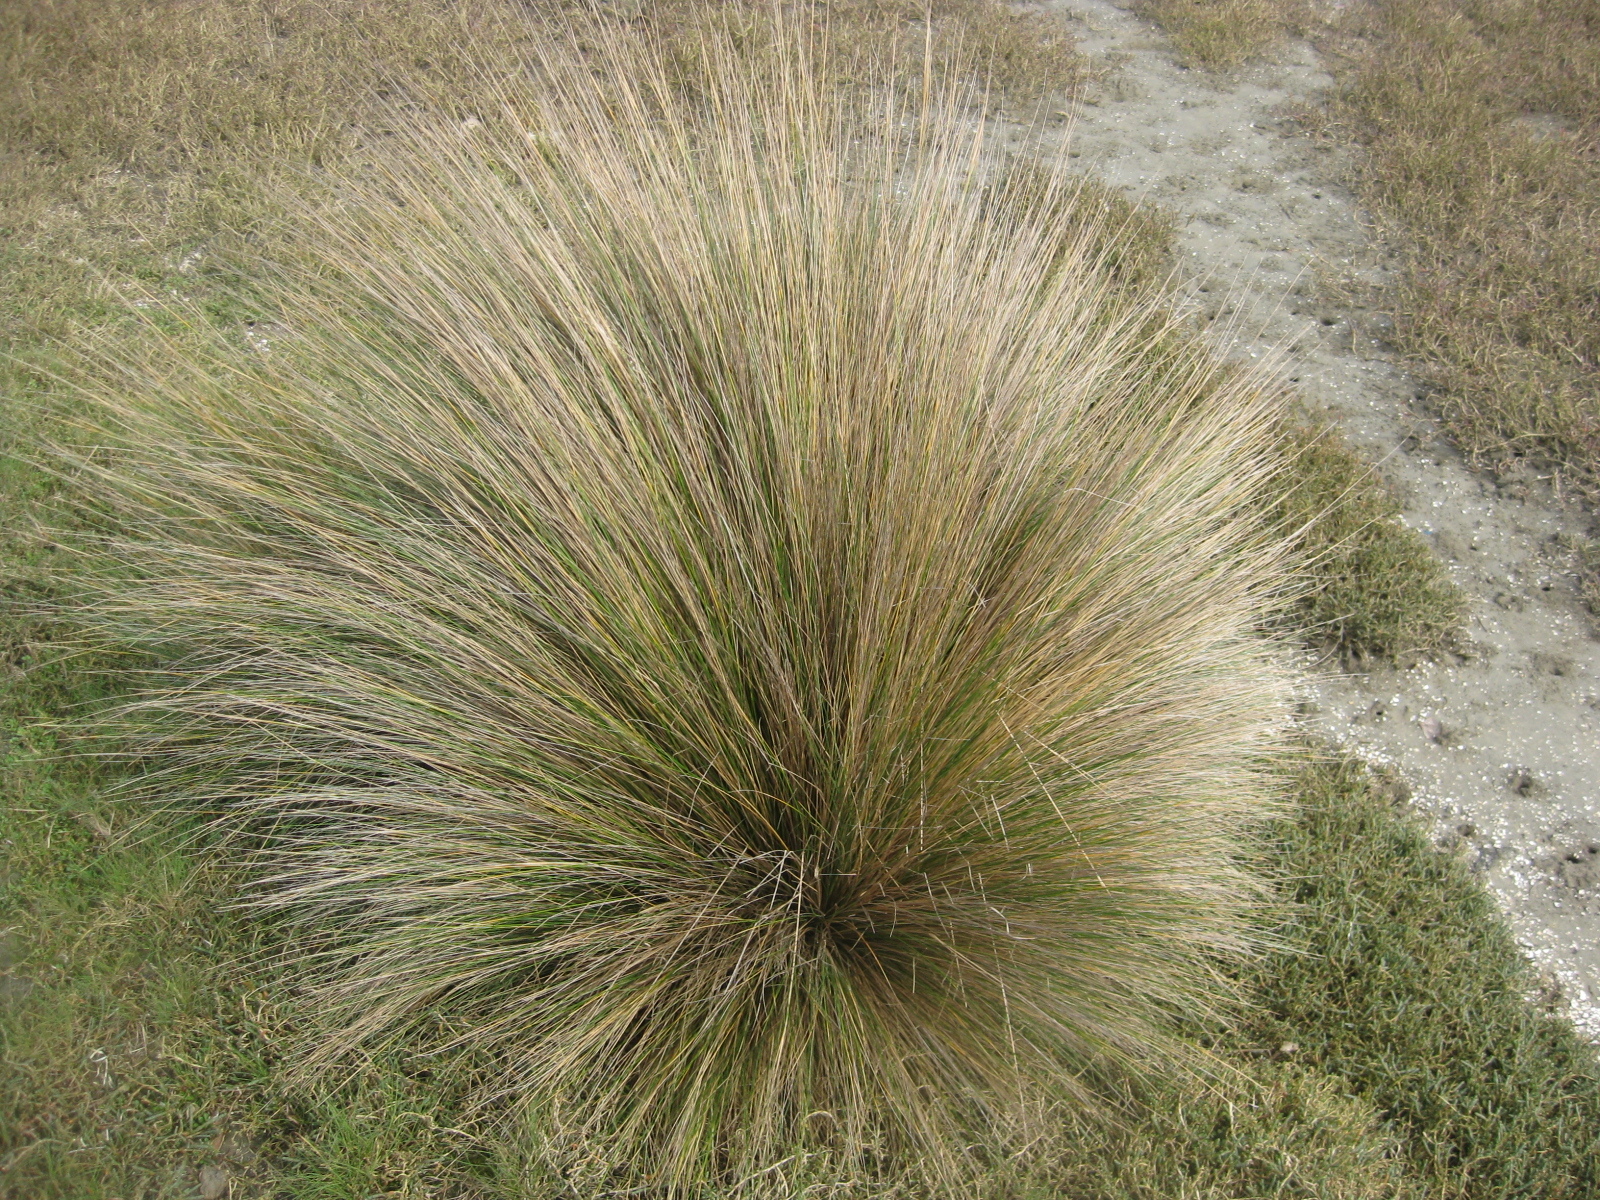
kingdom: Plantae
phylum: Tracheophyta
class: Liliopsida
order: Poales
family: Poaceae
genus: Austrostipa
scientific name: Austrostipa stipoides
